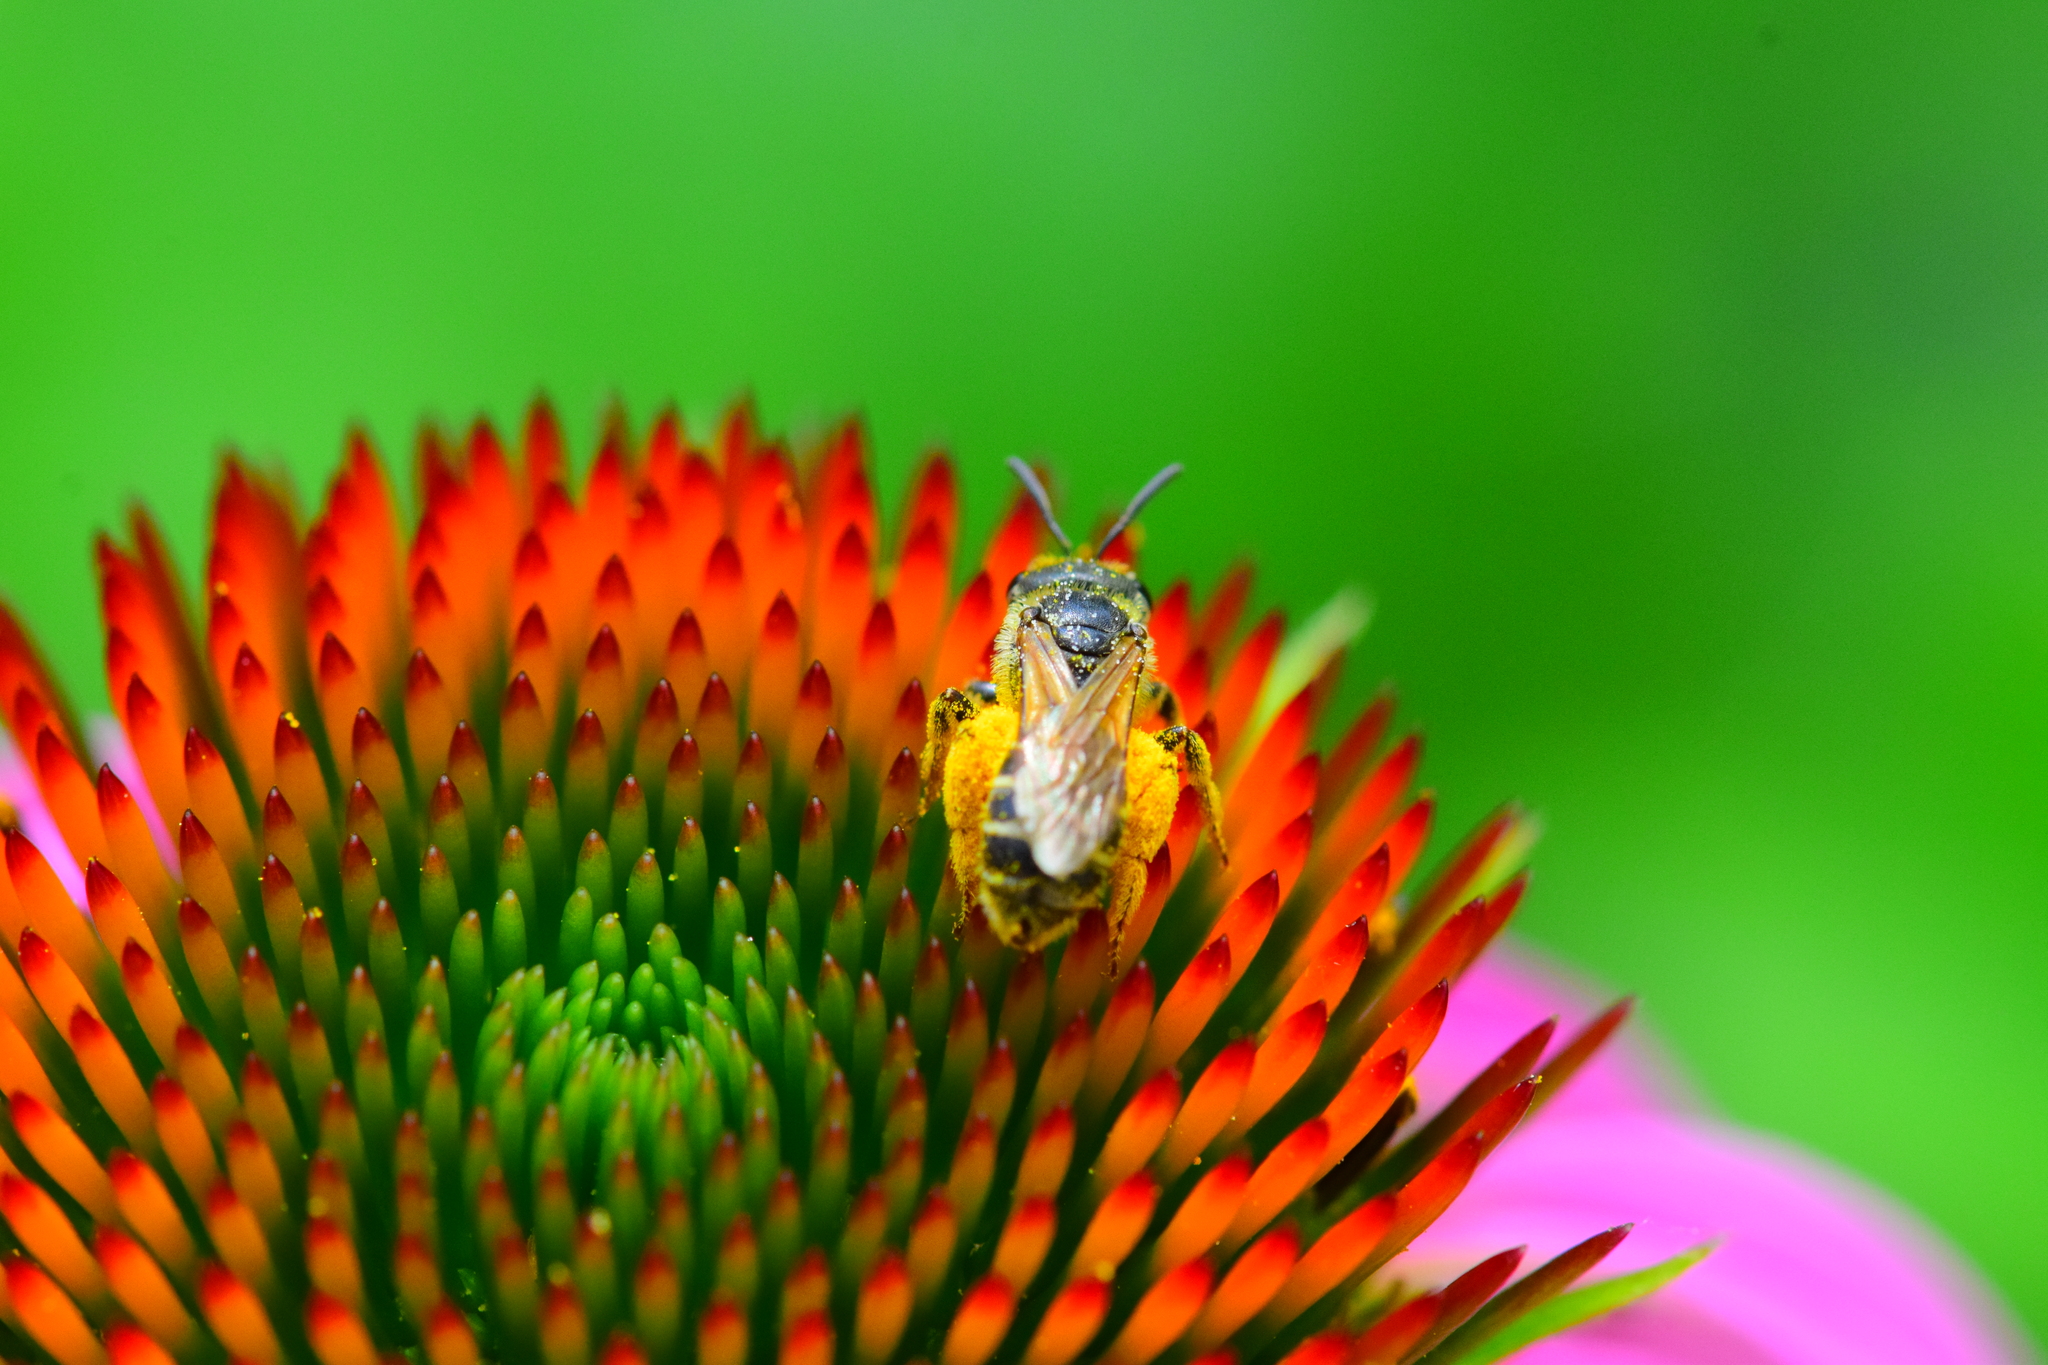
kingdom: Animalia
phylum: Arthropoda
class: Insecta
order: Hymenoptera
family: Halictidae
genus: Halictus
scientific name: Halictus ligatus
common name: Ligated furrow bee
